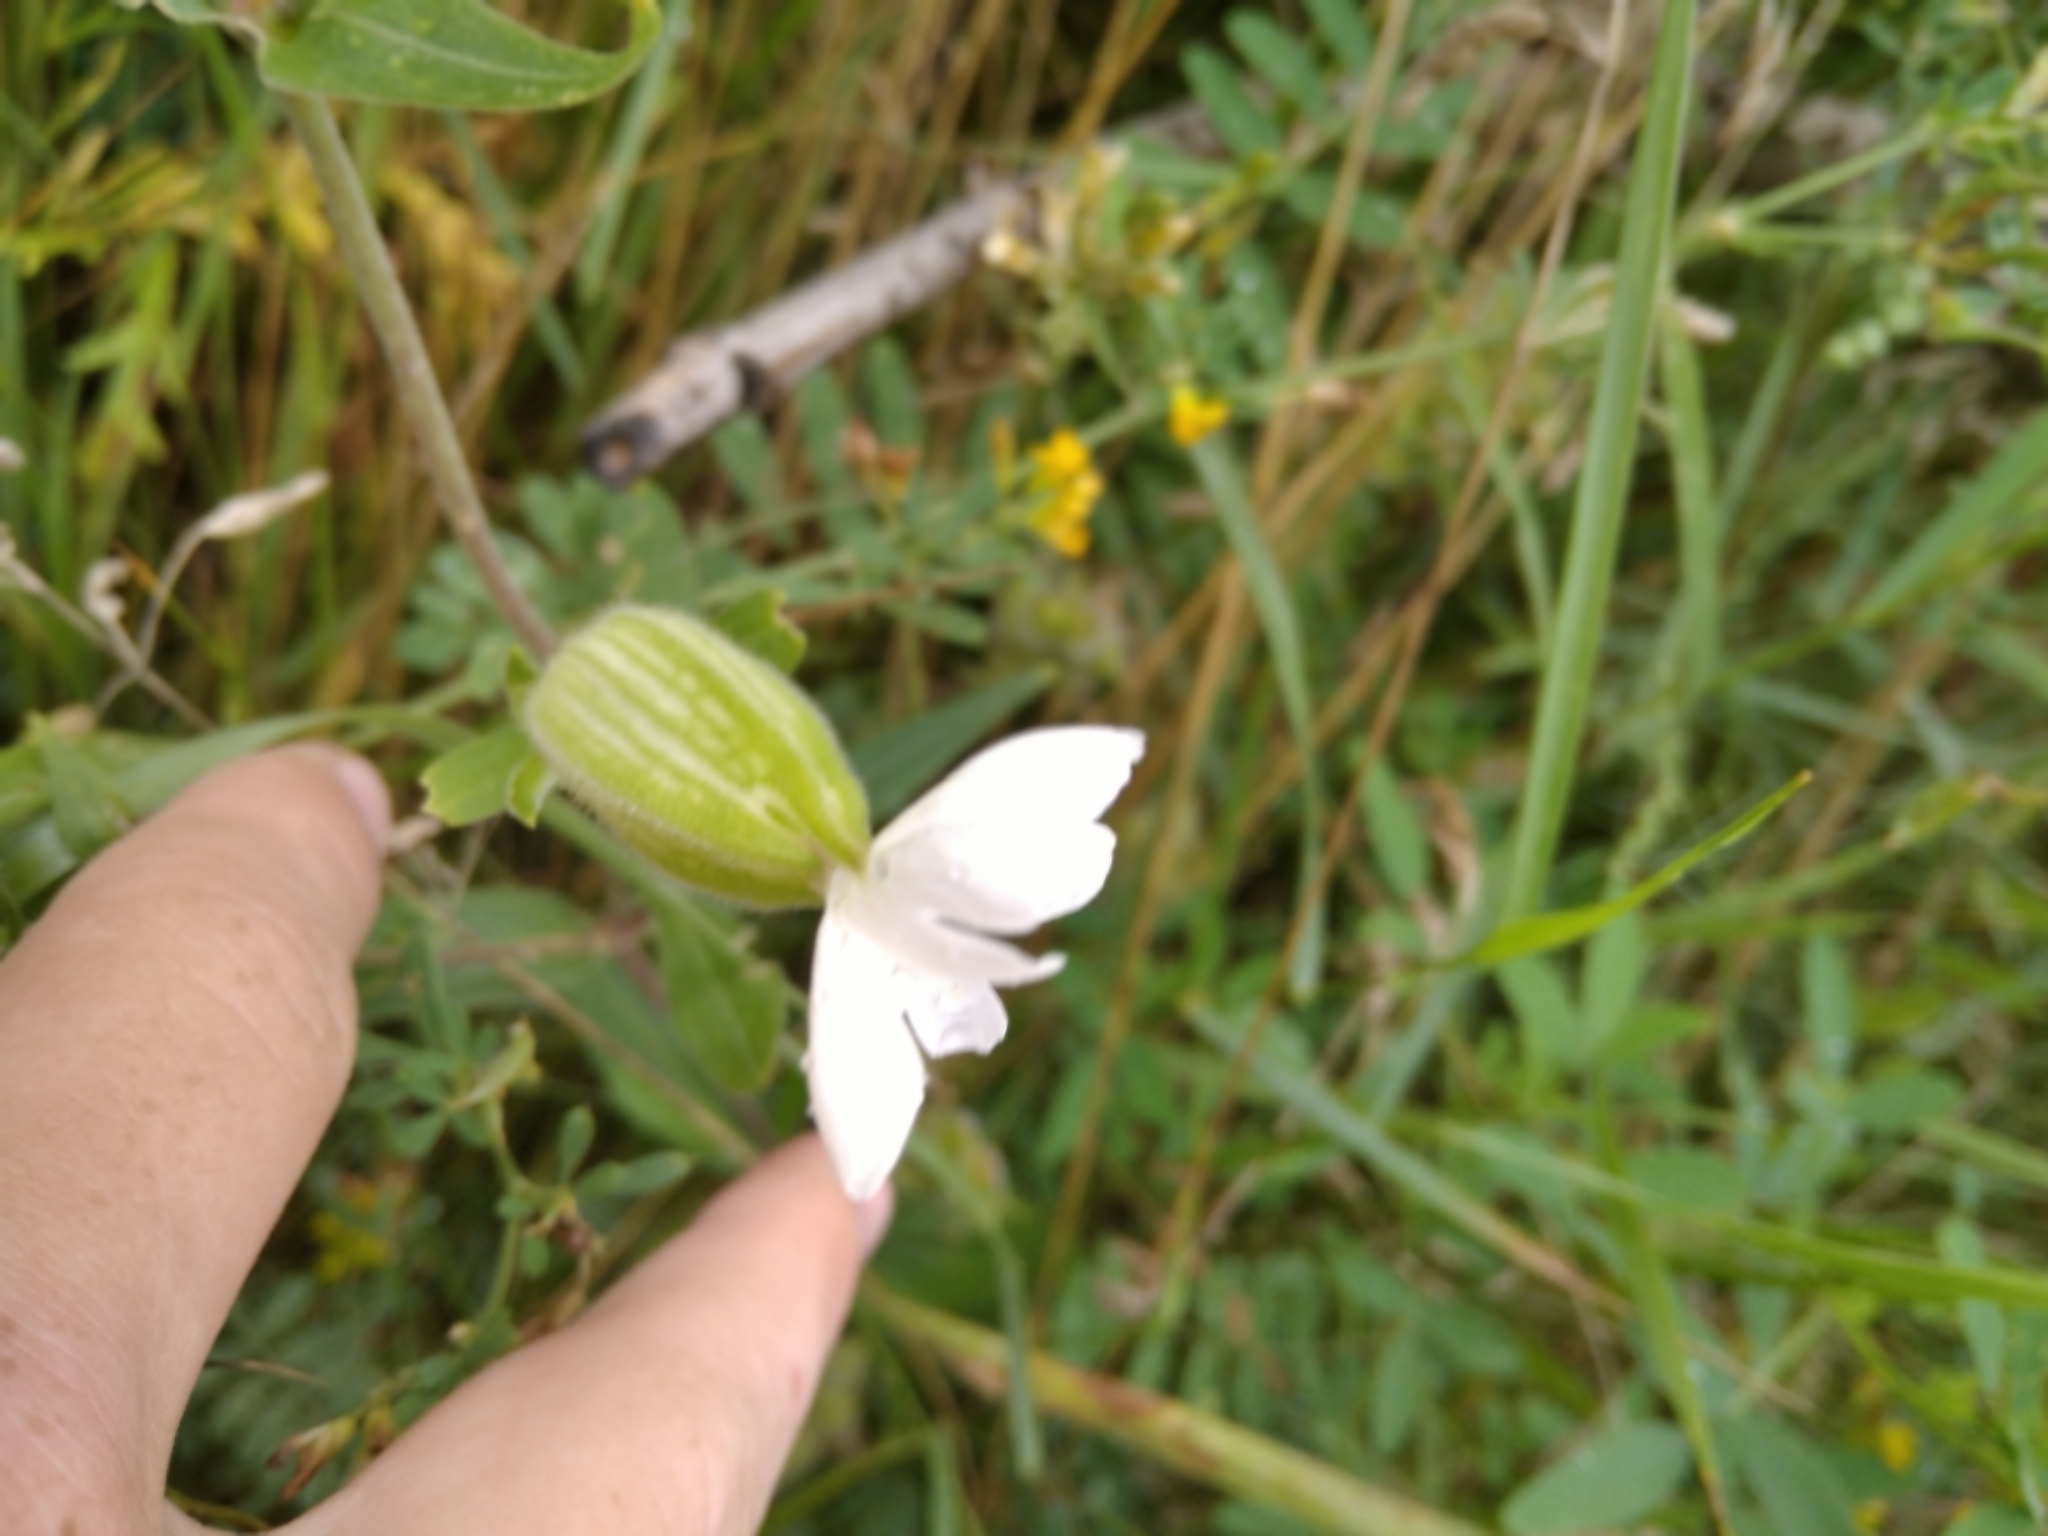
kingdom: Plantae
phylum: Tracheophyta
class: Magnoliopsida
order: Caryophyllales
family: Caryophyllaceae
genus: Silene
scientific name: Silene latifolia
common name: White campion
